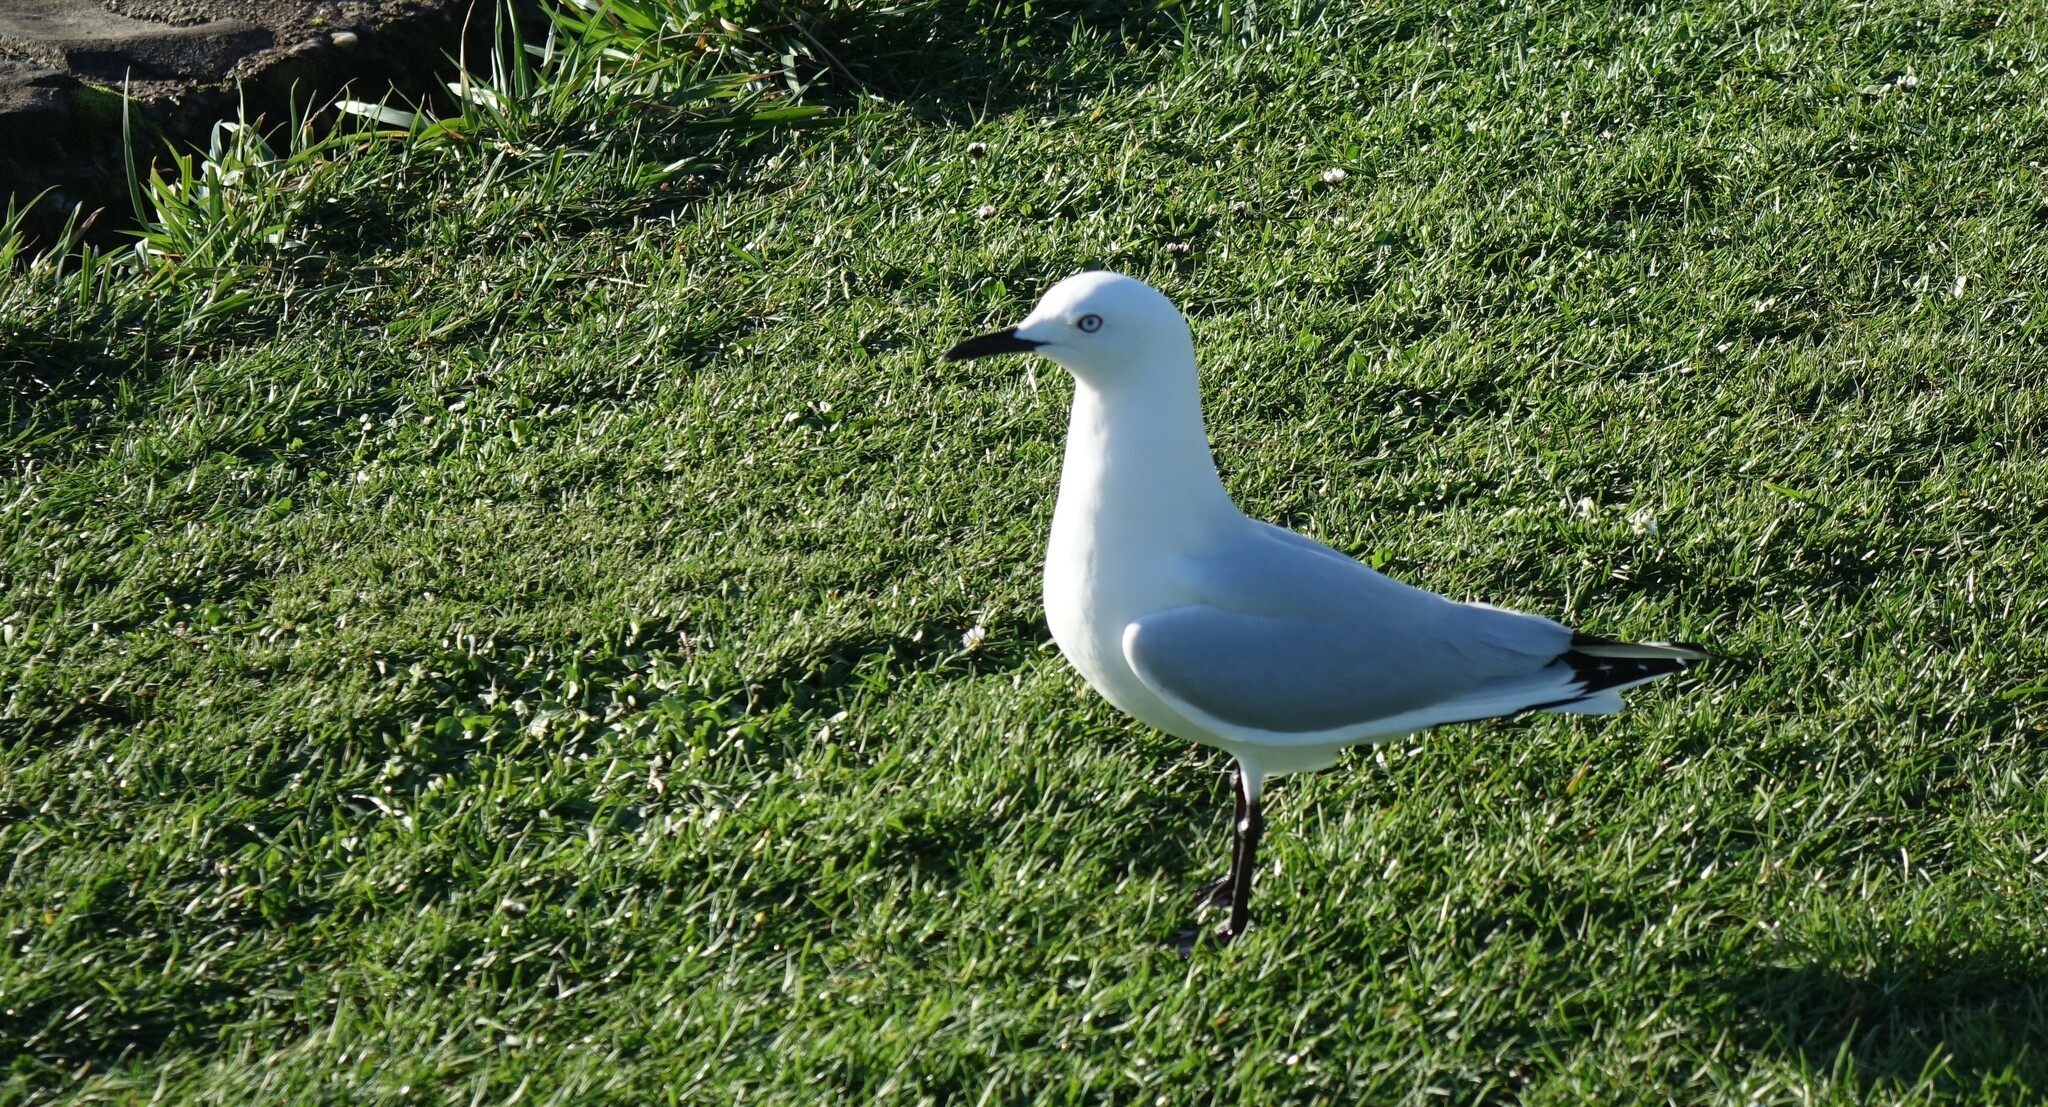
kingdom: Animalia
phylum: Chordata
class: Aves
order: Charadriiformes
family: Laridae
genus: Chroicocephalus
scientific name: Chroicocephalus bulleri
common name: Black-billed gull
